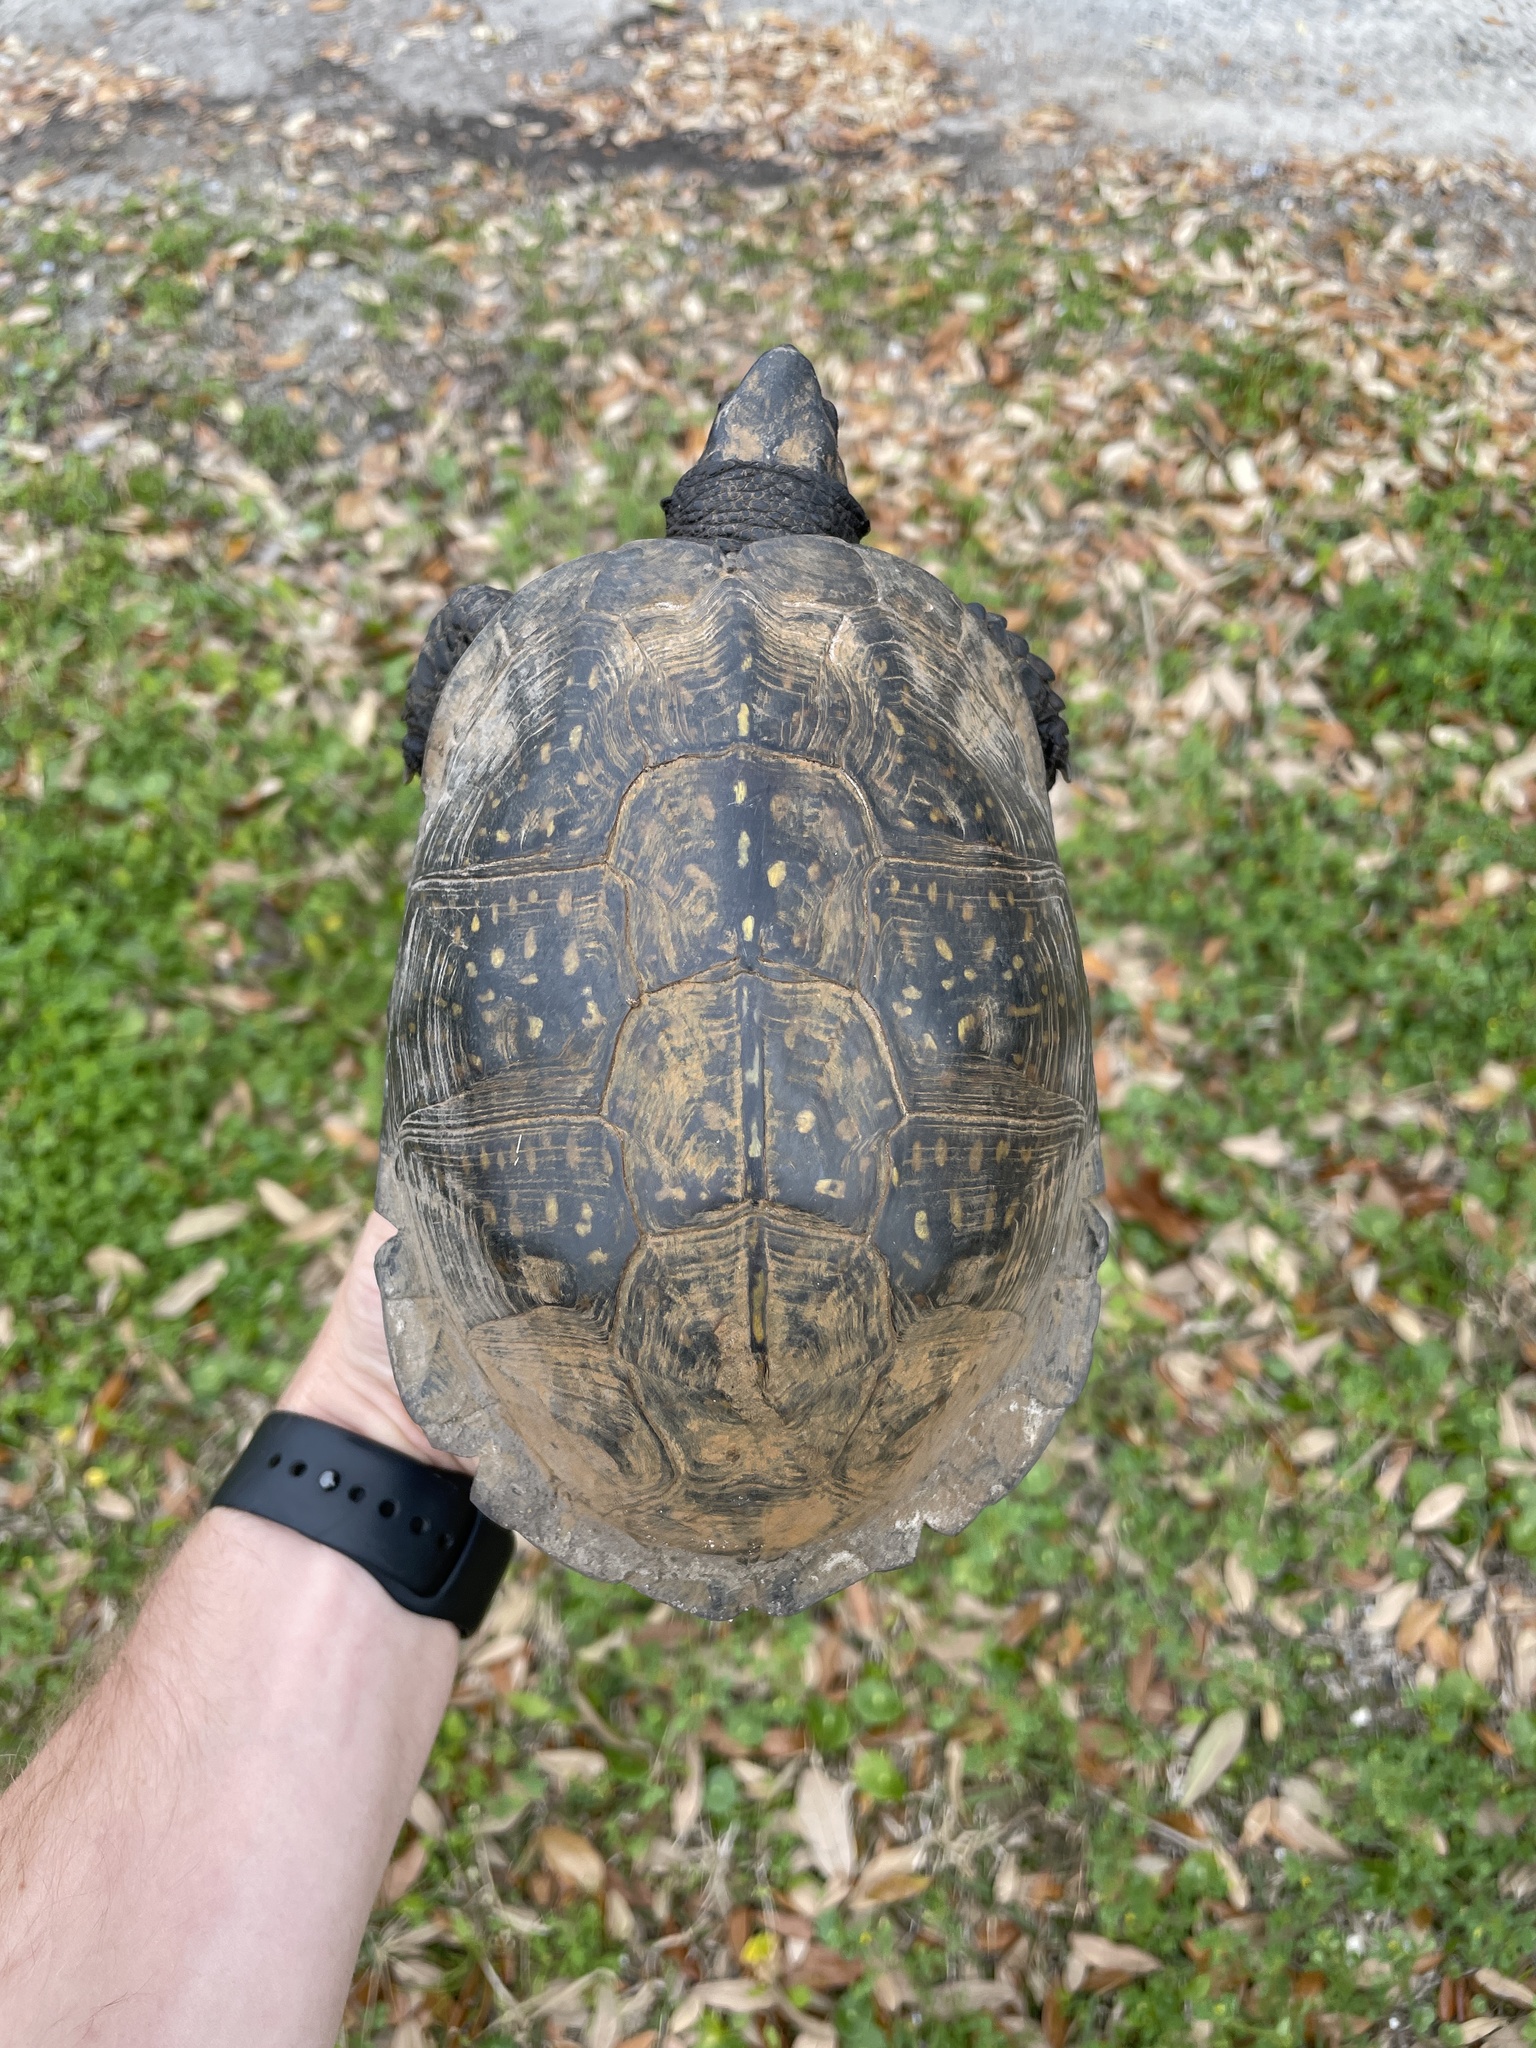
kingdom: Animalia
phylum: Chordata
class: Testudines
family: Emydidae
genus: Terrapene
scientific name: Terrapene carolina
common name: Common box turtle
